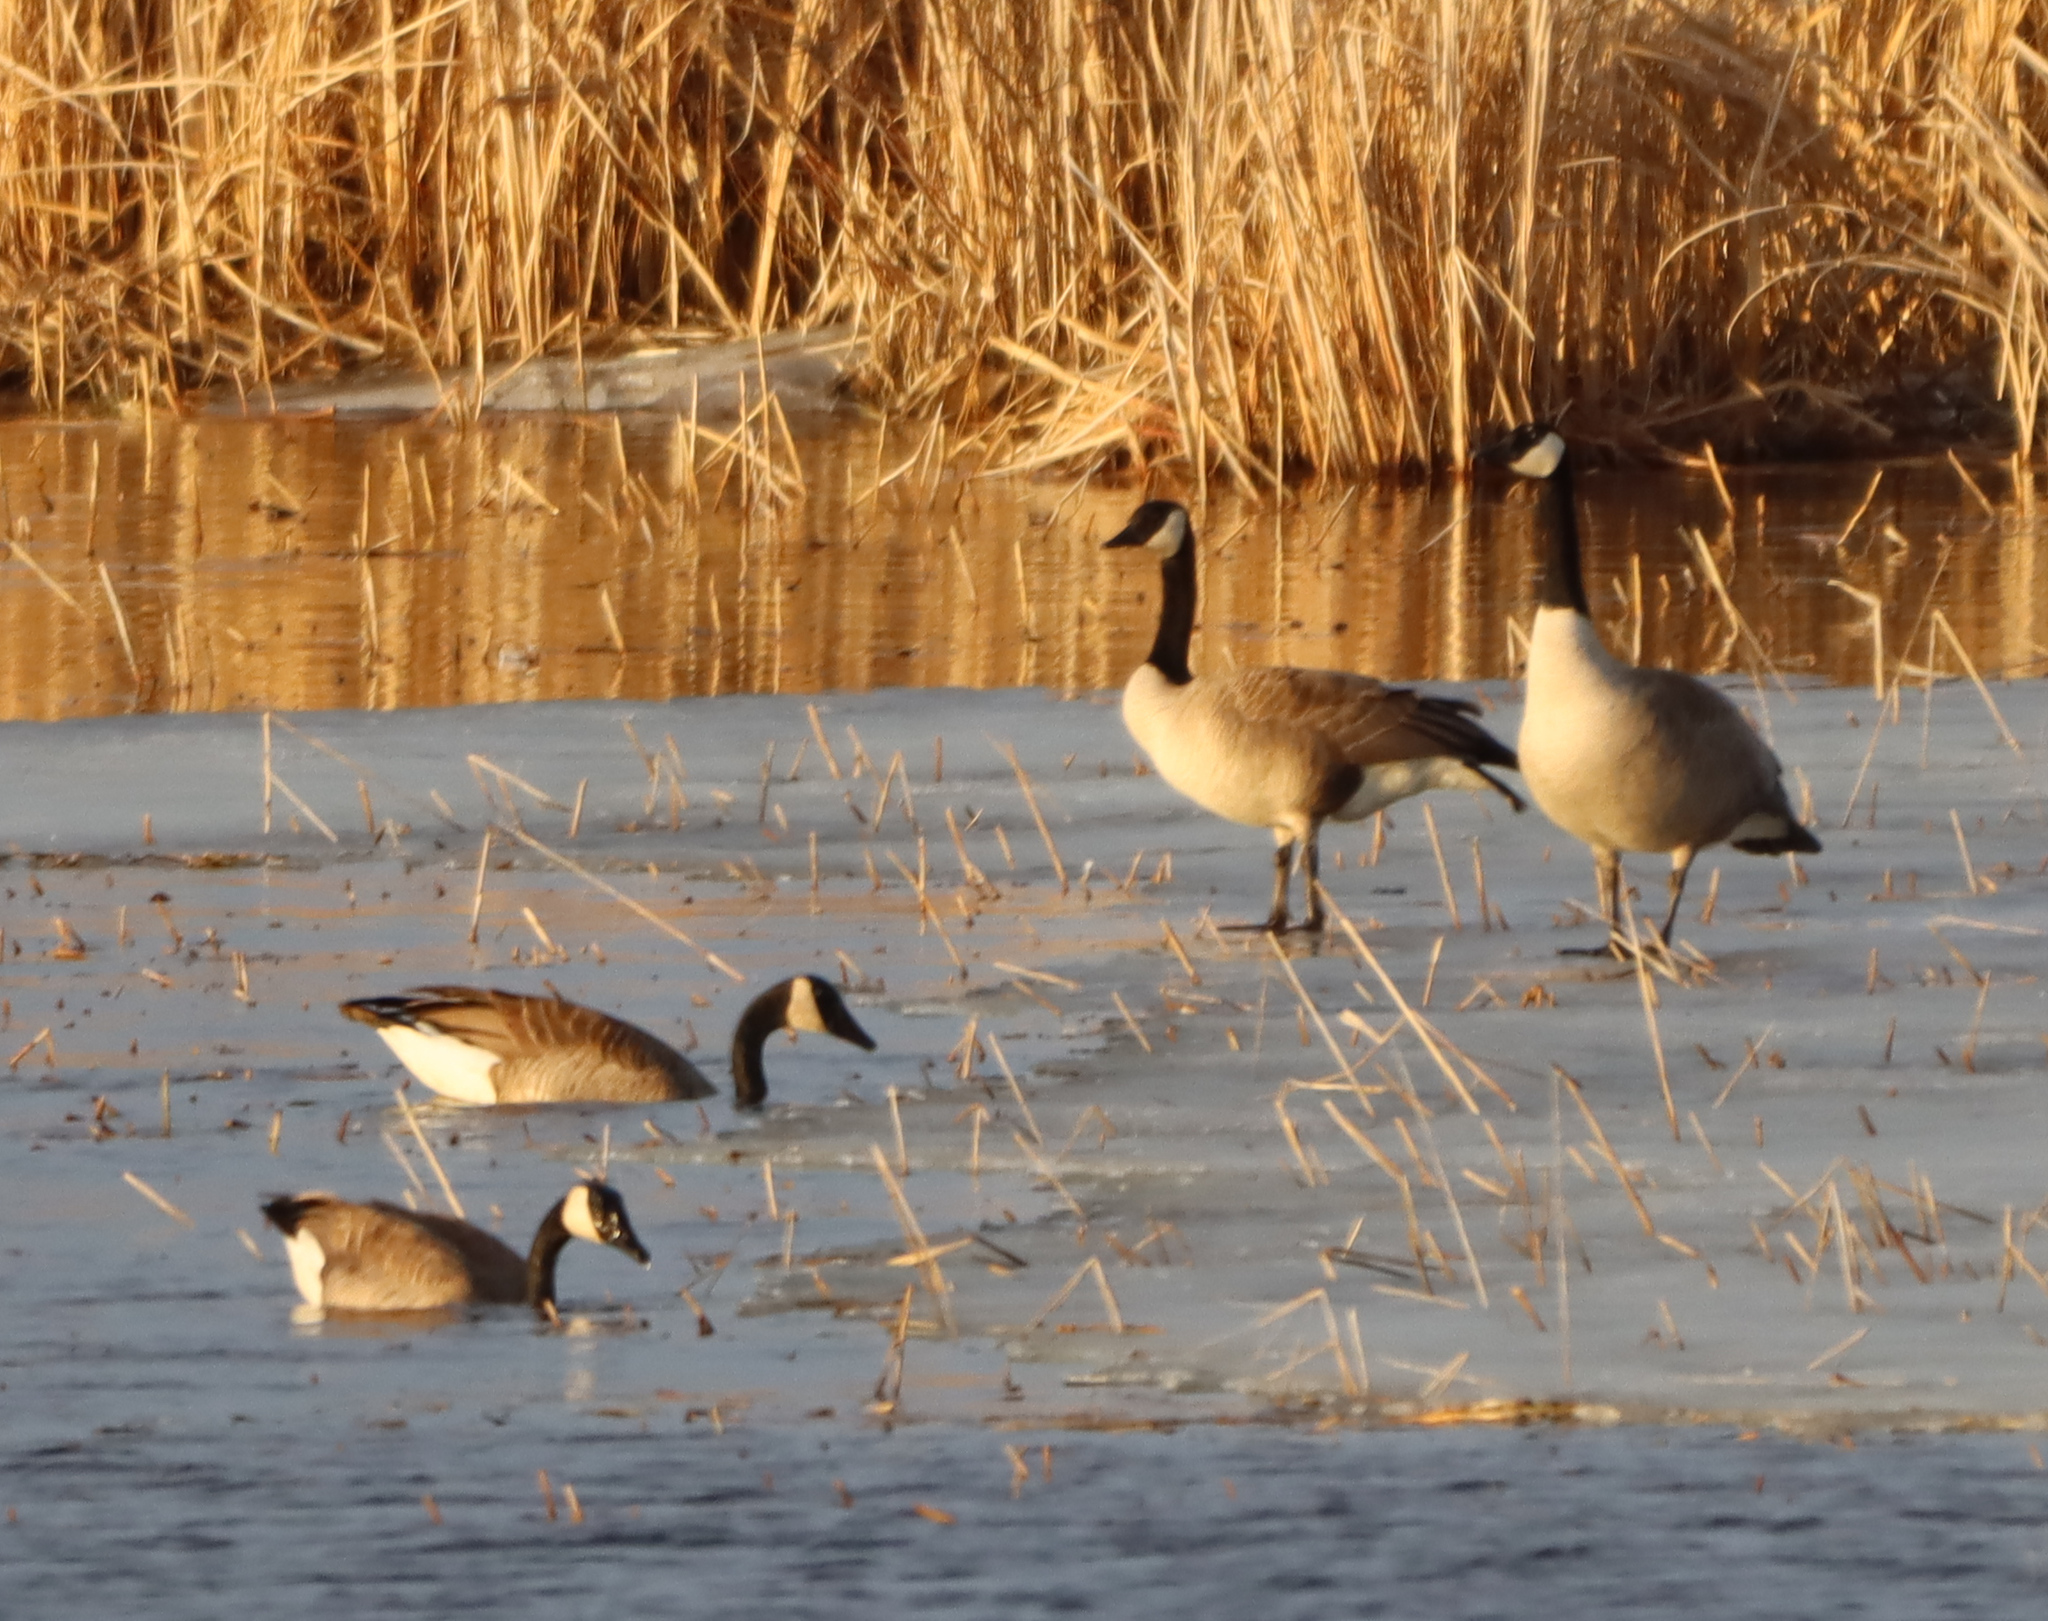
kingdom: Animalia
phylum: Chordata
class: Aves
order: Anseriformes
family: Anatidae
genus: Branta
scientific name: Branta canadensis
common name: Canada goose
